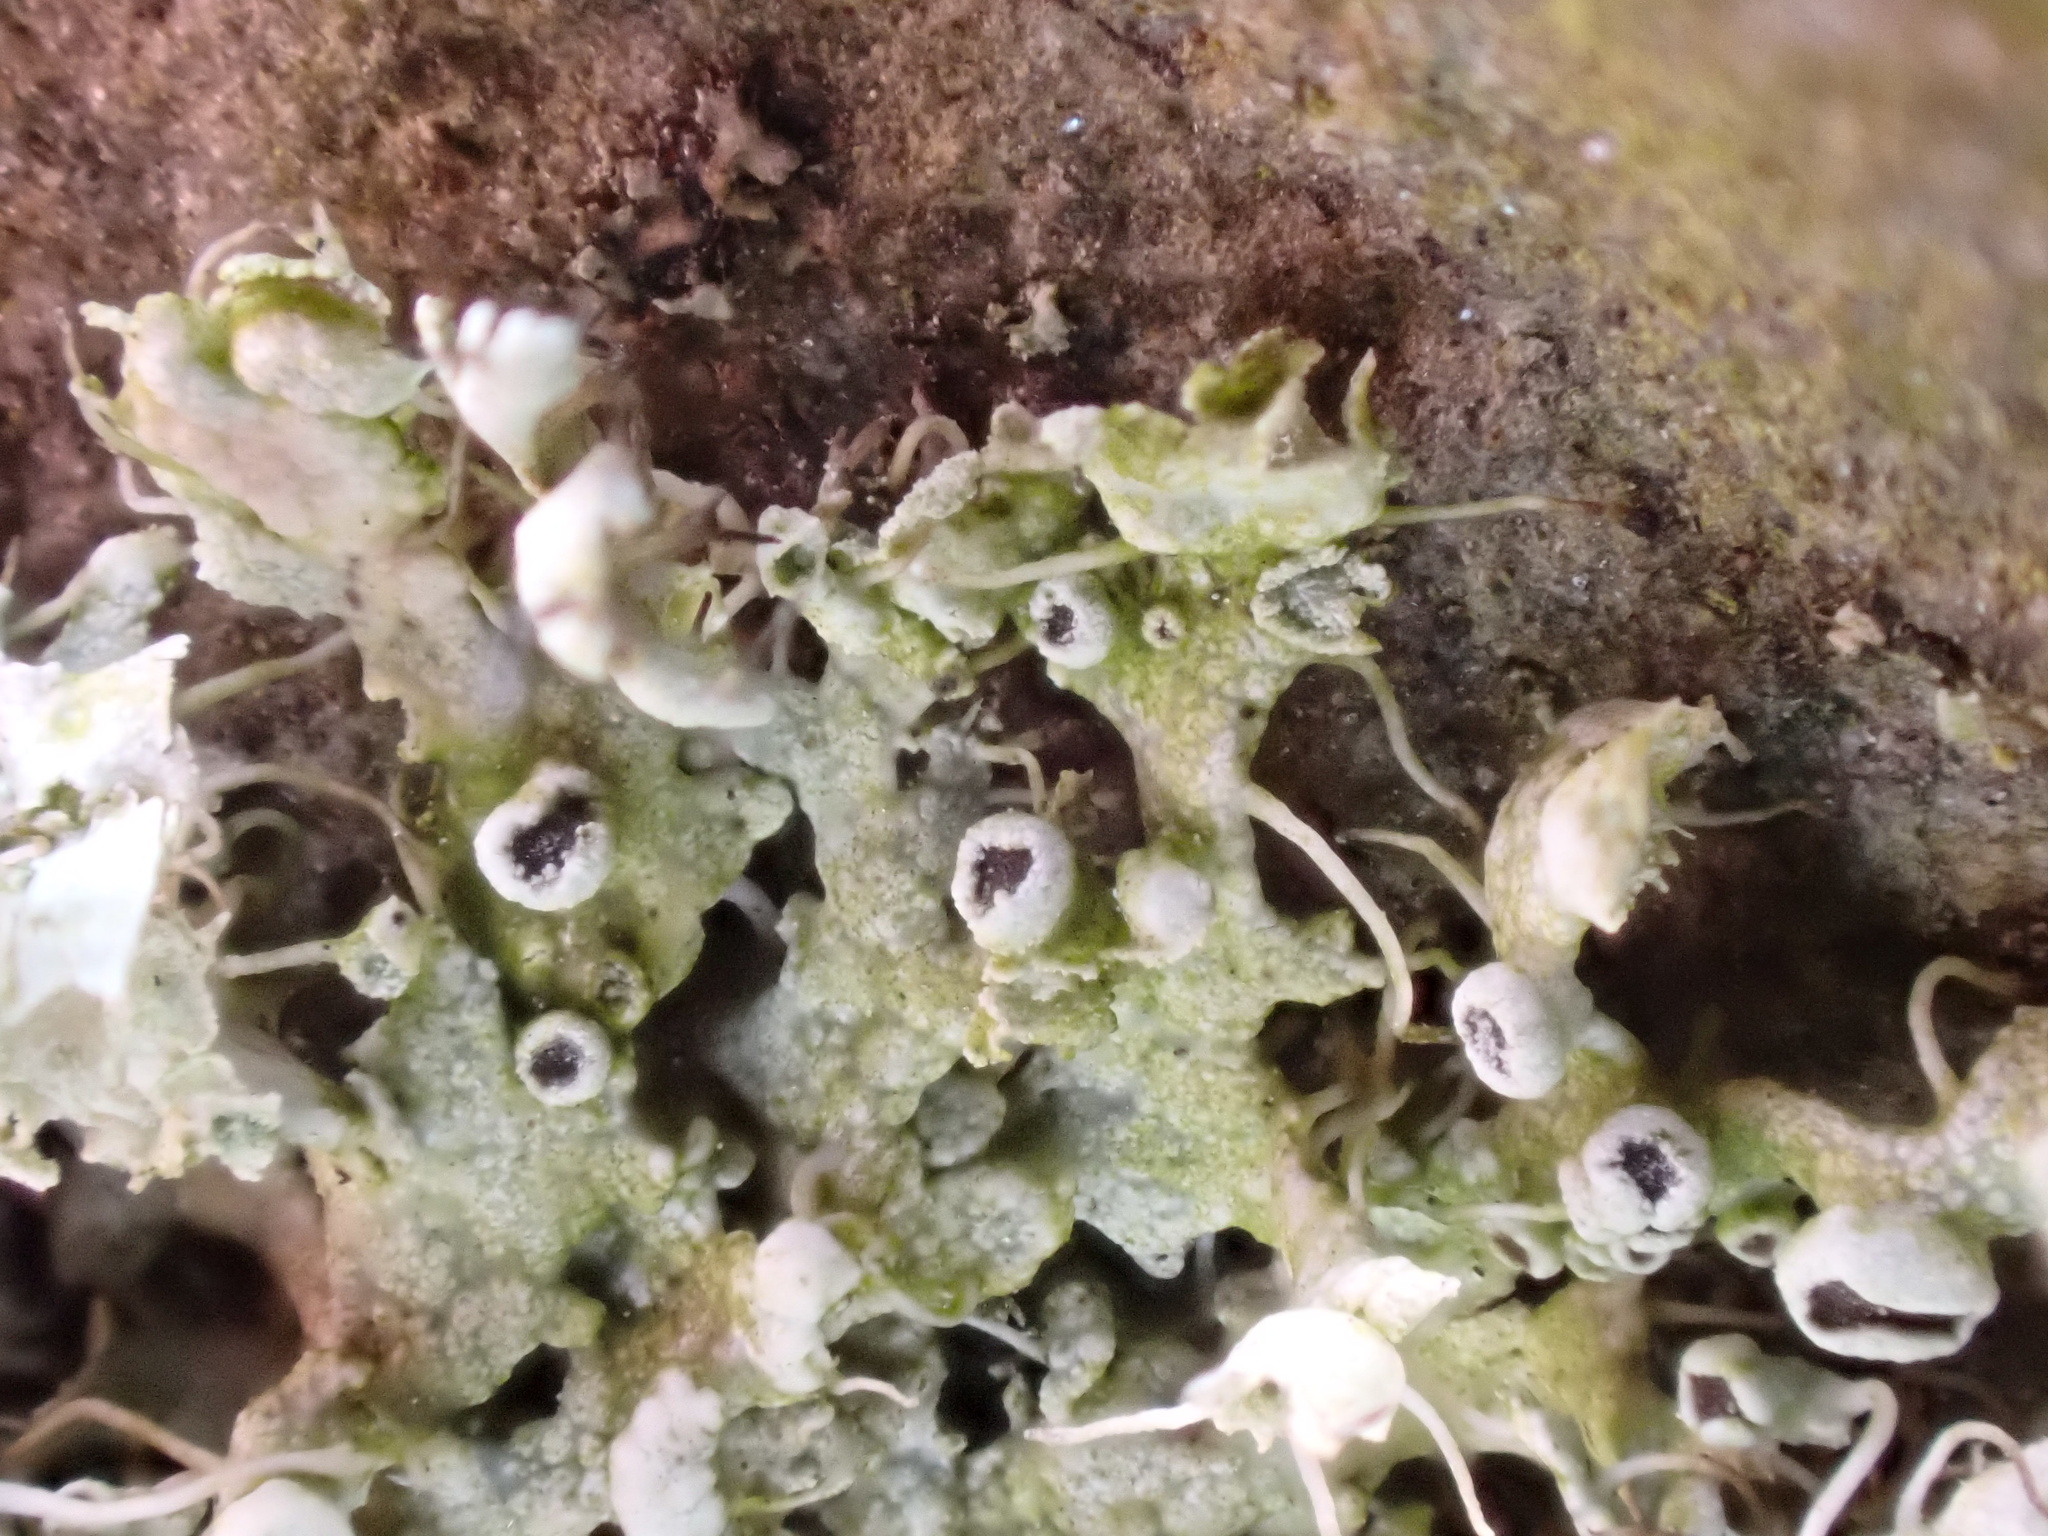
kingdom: Fungi
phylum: Ascomycota
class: Lecanoromycetes
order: Caliciales
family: Physciaceae
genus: Physcia
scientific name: Physcia adscendens
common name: Hooded rosette lichen
